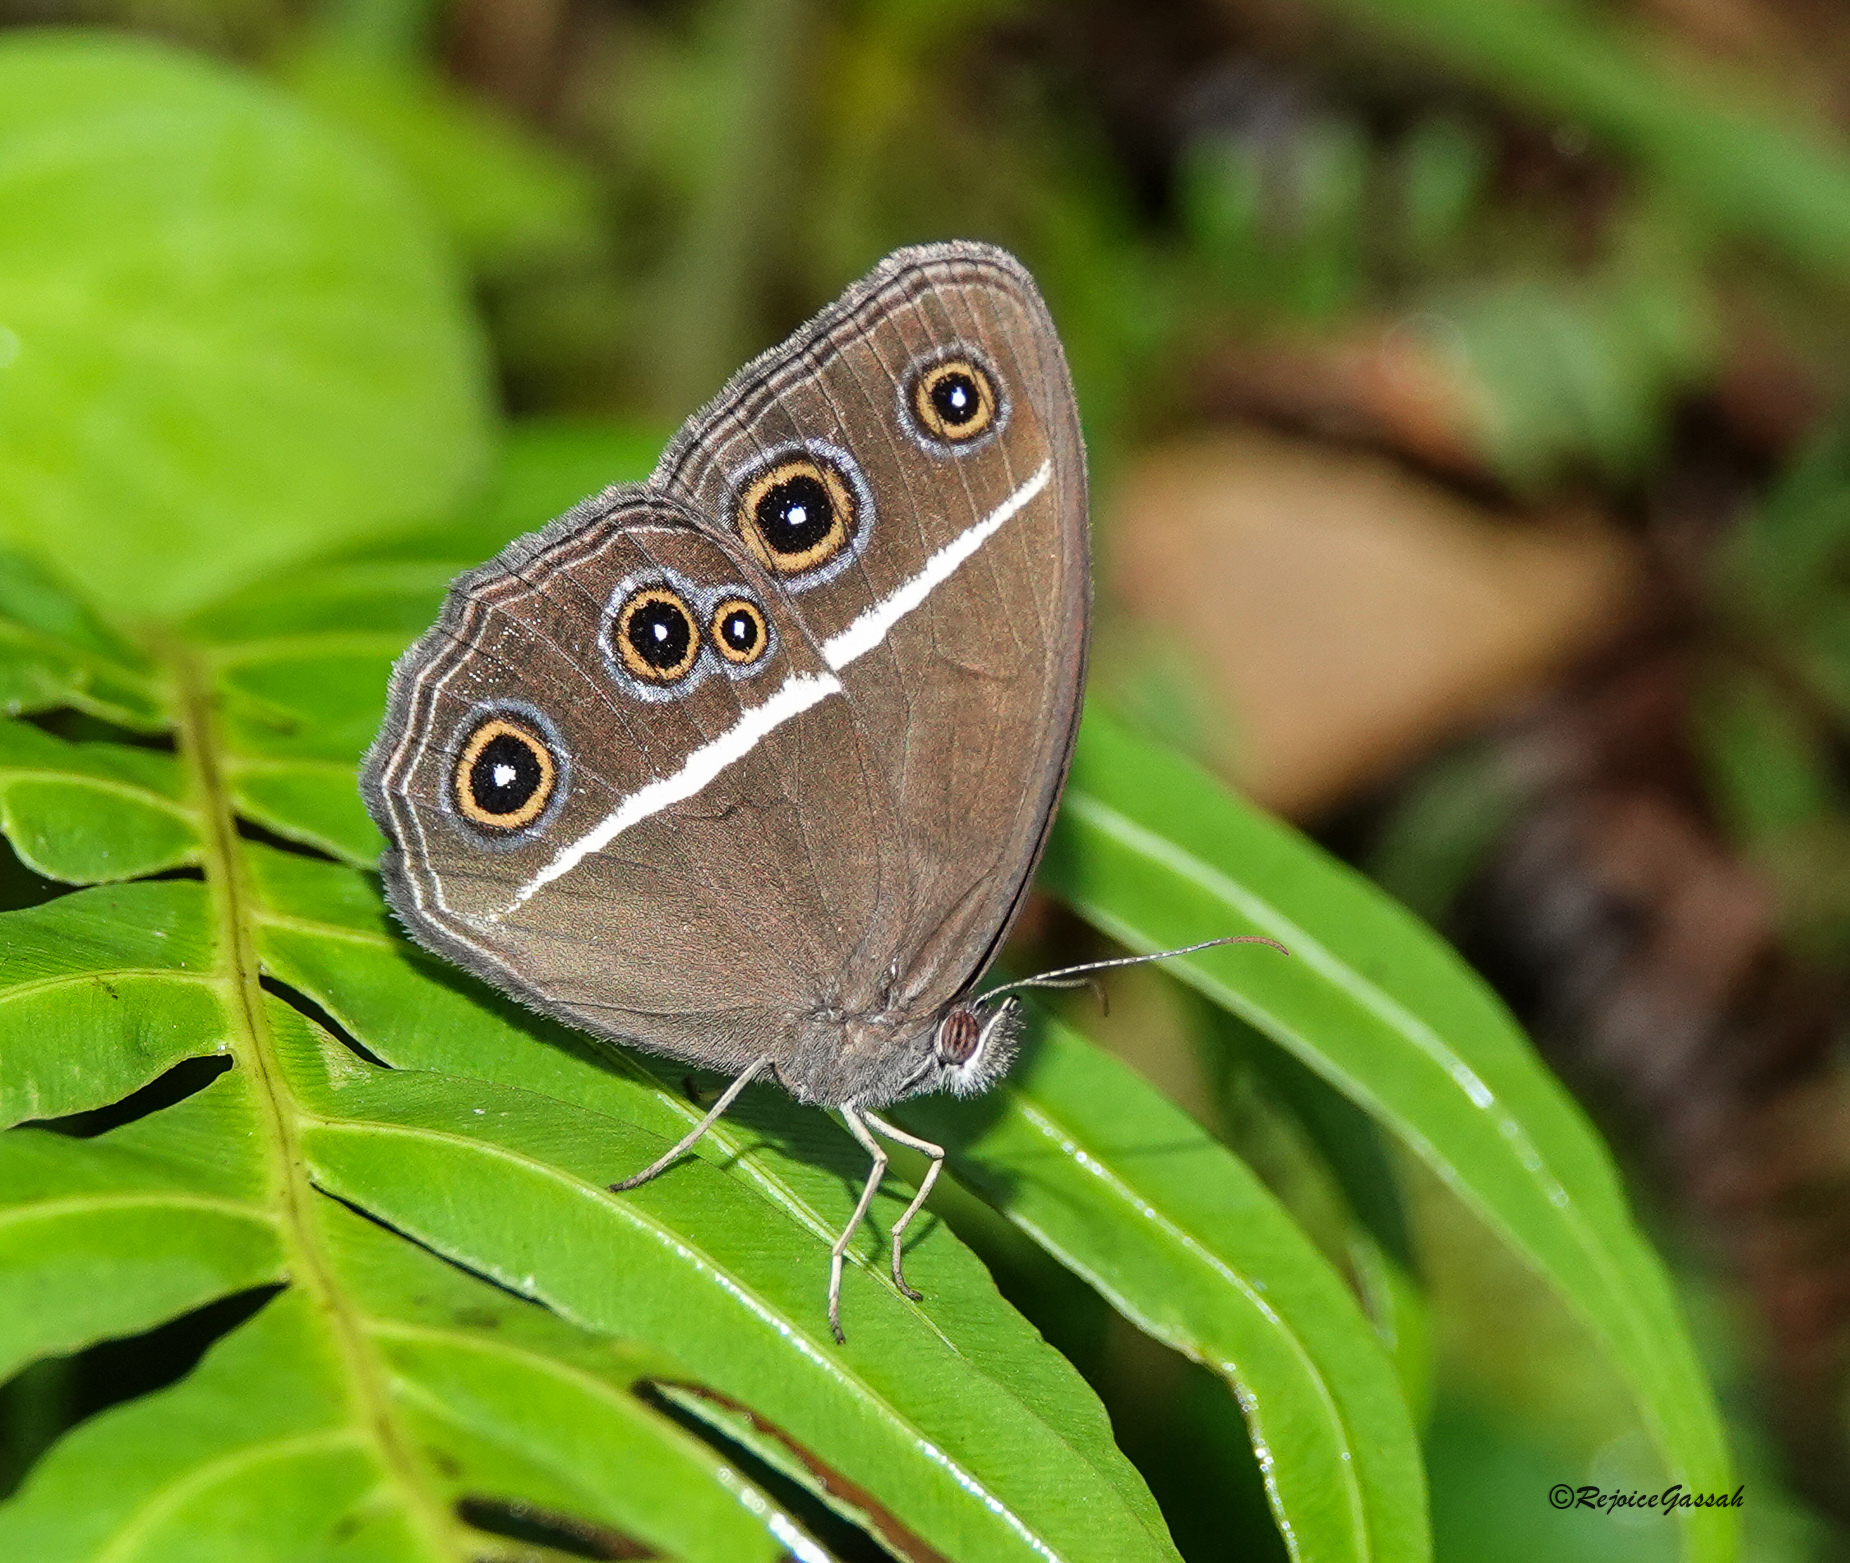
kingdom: Animalia
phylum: Arthropoda
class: Insecta
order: Lepidoptera
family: Nymphalidae
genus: Orsotriaena
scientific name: Orsotriaena medus
